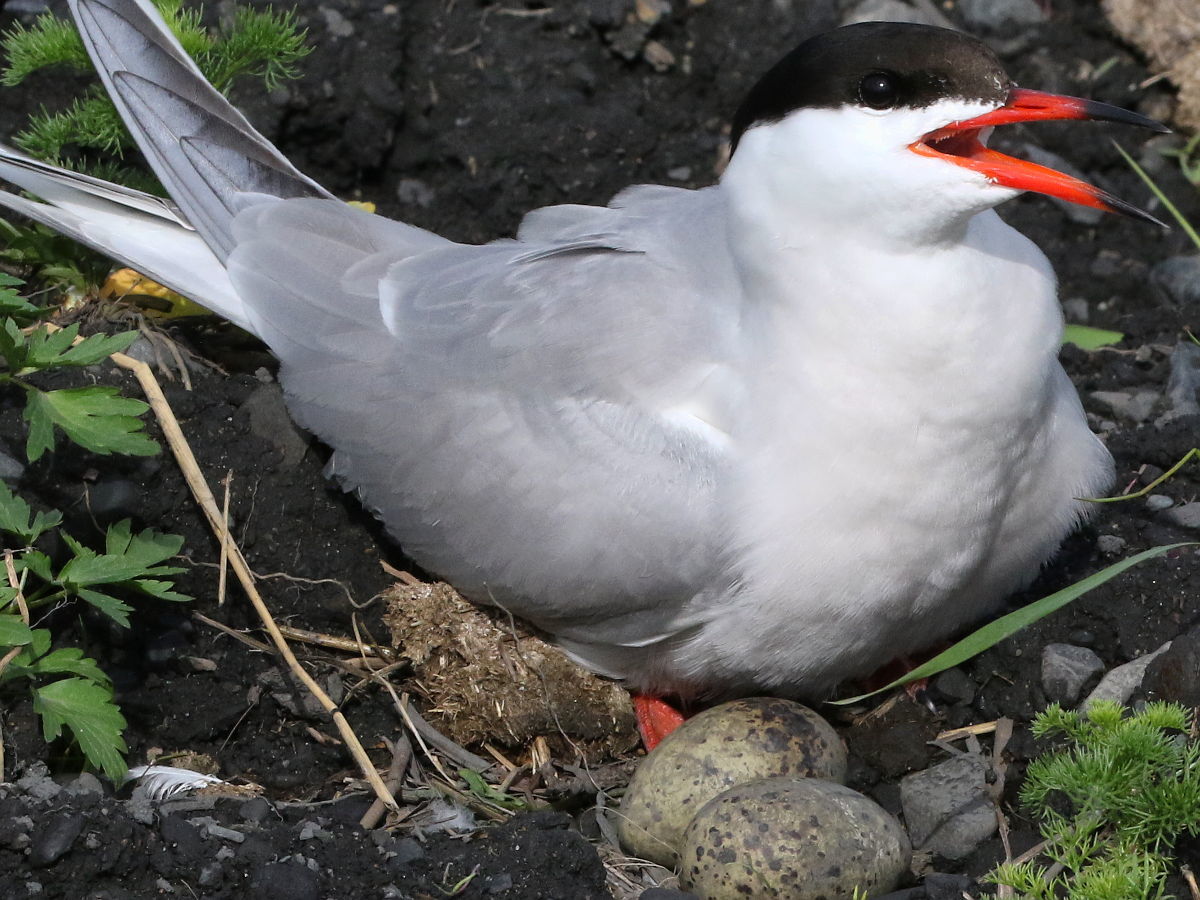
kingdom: Animalia
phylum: Chordata
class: Aves
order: Charadriiformes
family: Laridae
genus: Sterna
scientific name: Sterna hirundo
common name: Common tern
